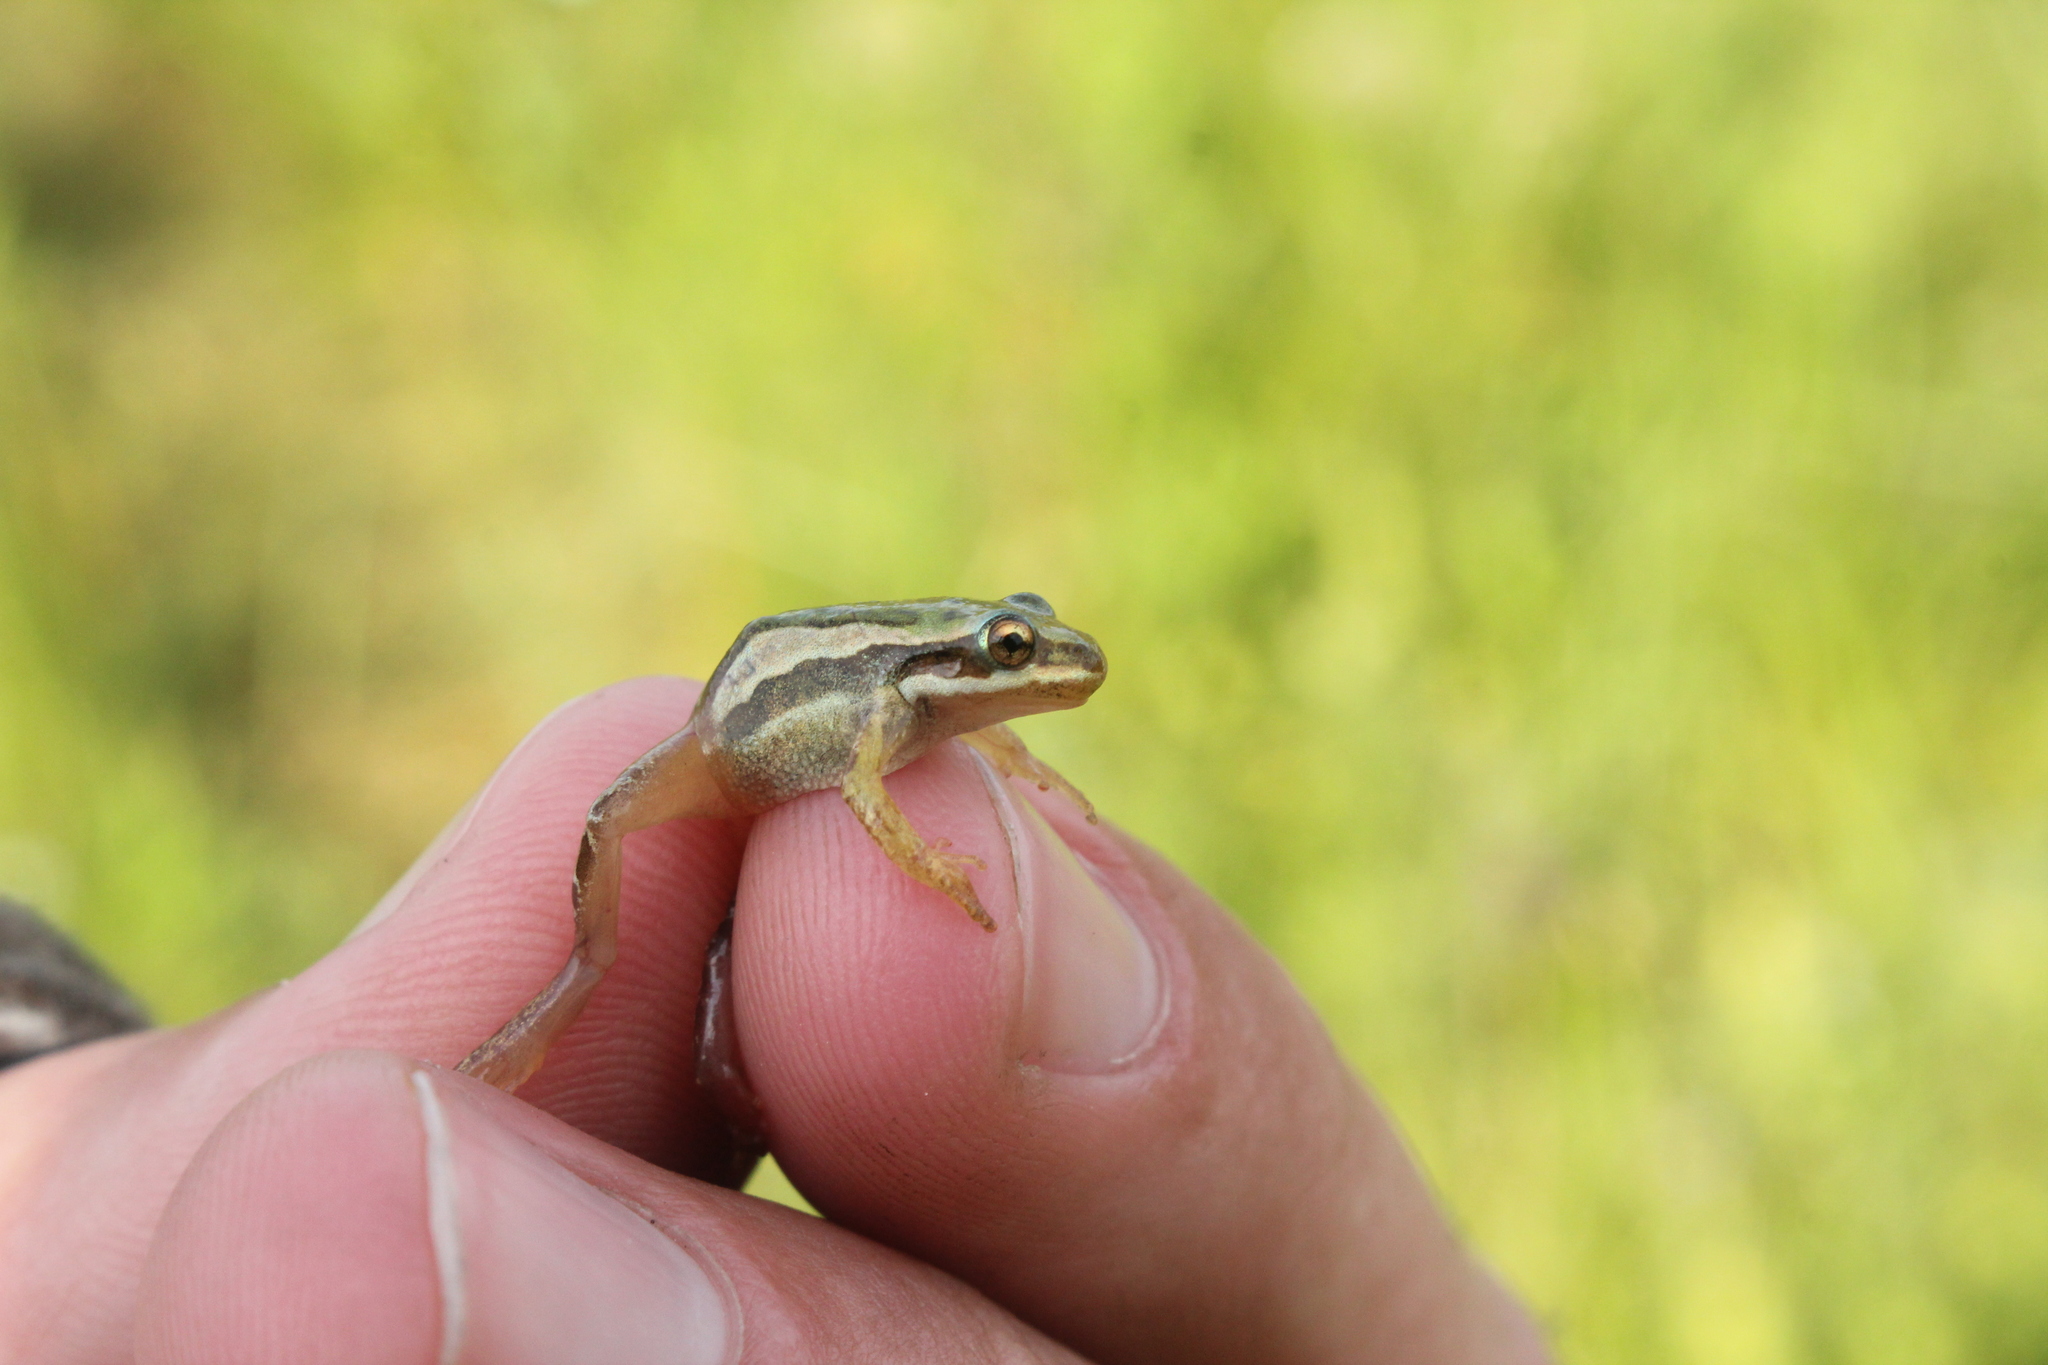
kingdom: Animalia
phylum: Chordata
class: Amphibia
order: Anura
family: Hylidae
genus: Pseudacris
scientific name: Pseudacris maculata
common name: Boreal chorus frog
